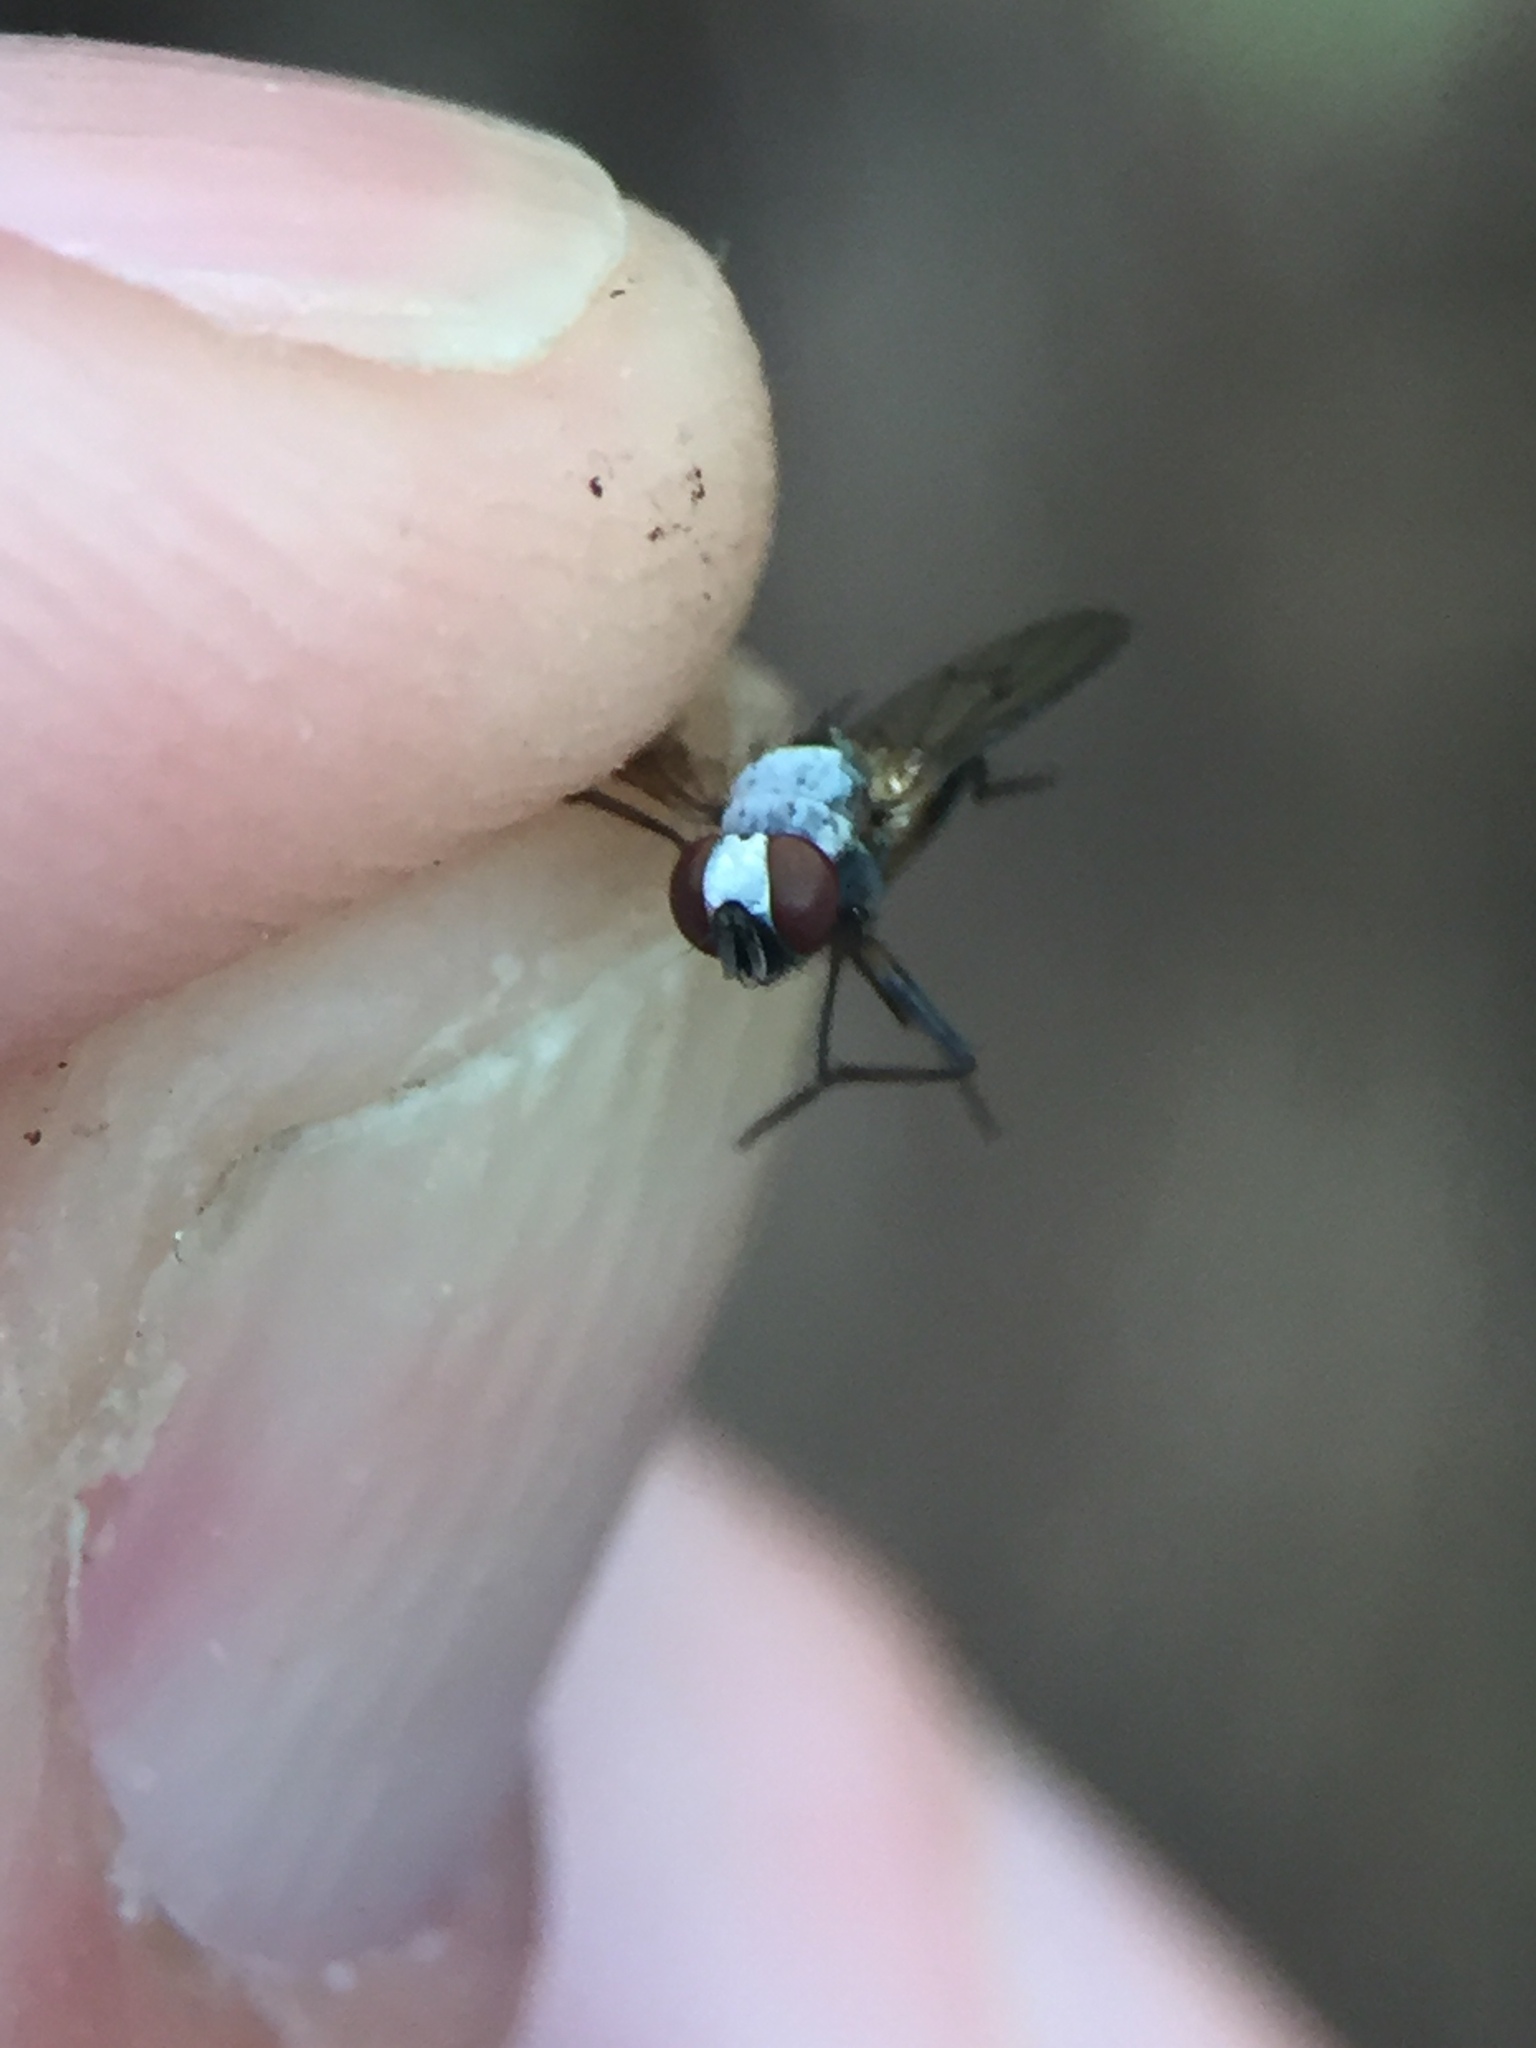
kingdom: Animalia
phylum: Arthropoda
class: Insecta
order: Diptera
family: Muscidae
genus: Spilogona
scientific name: Spilogona flaviventris
